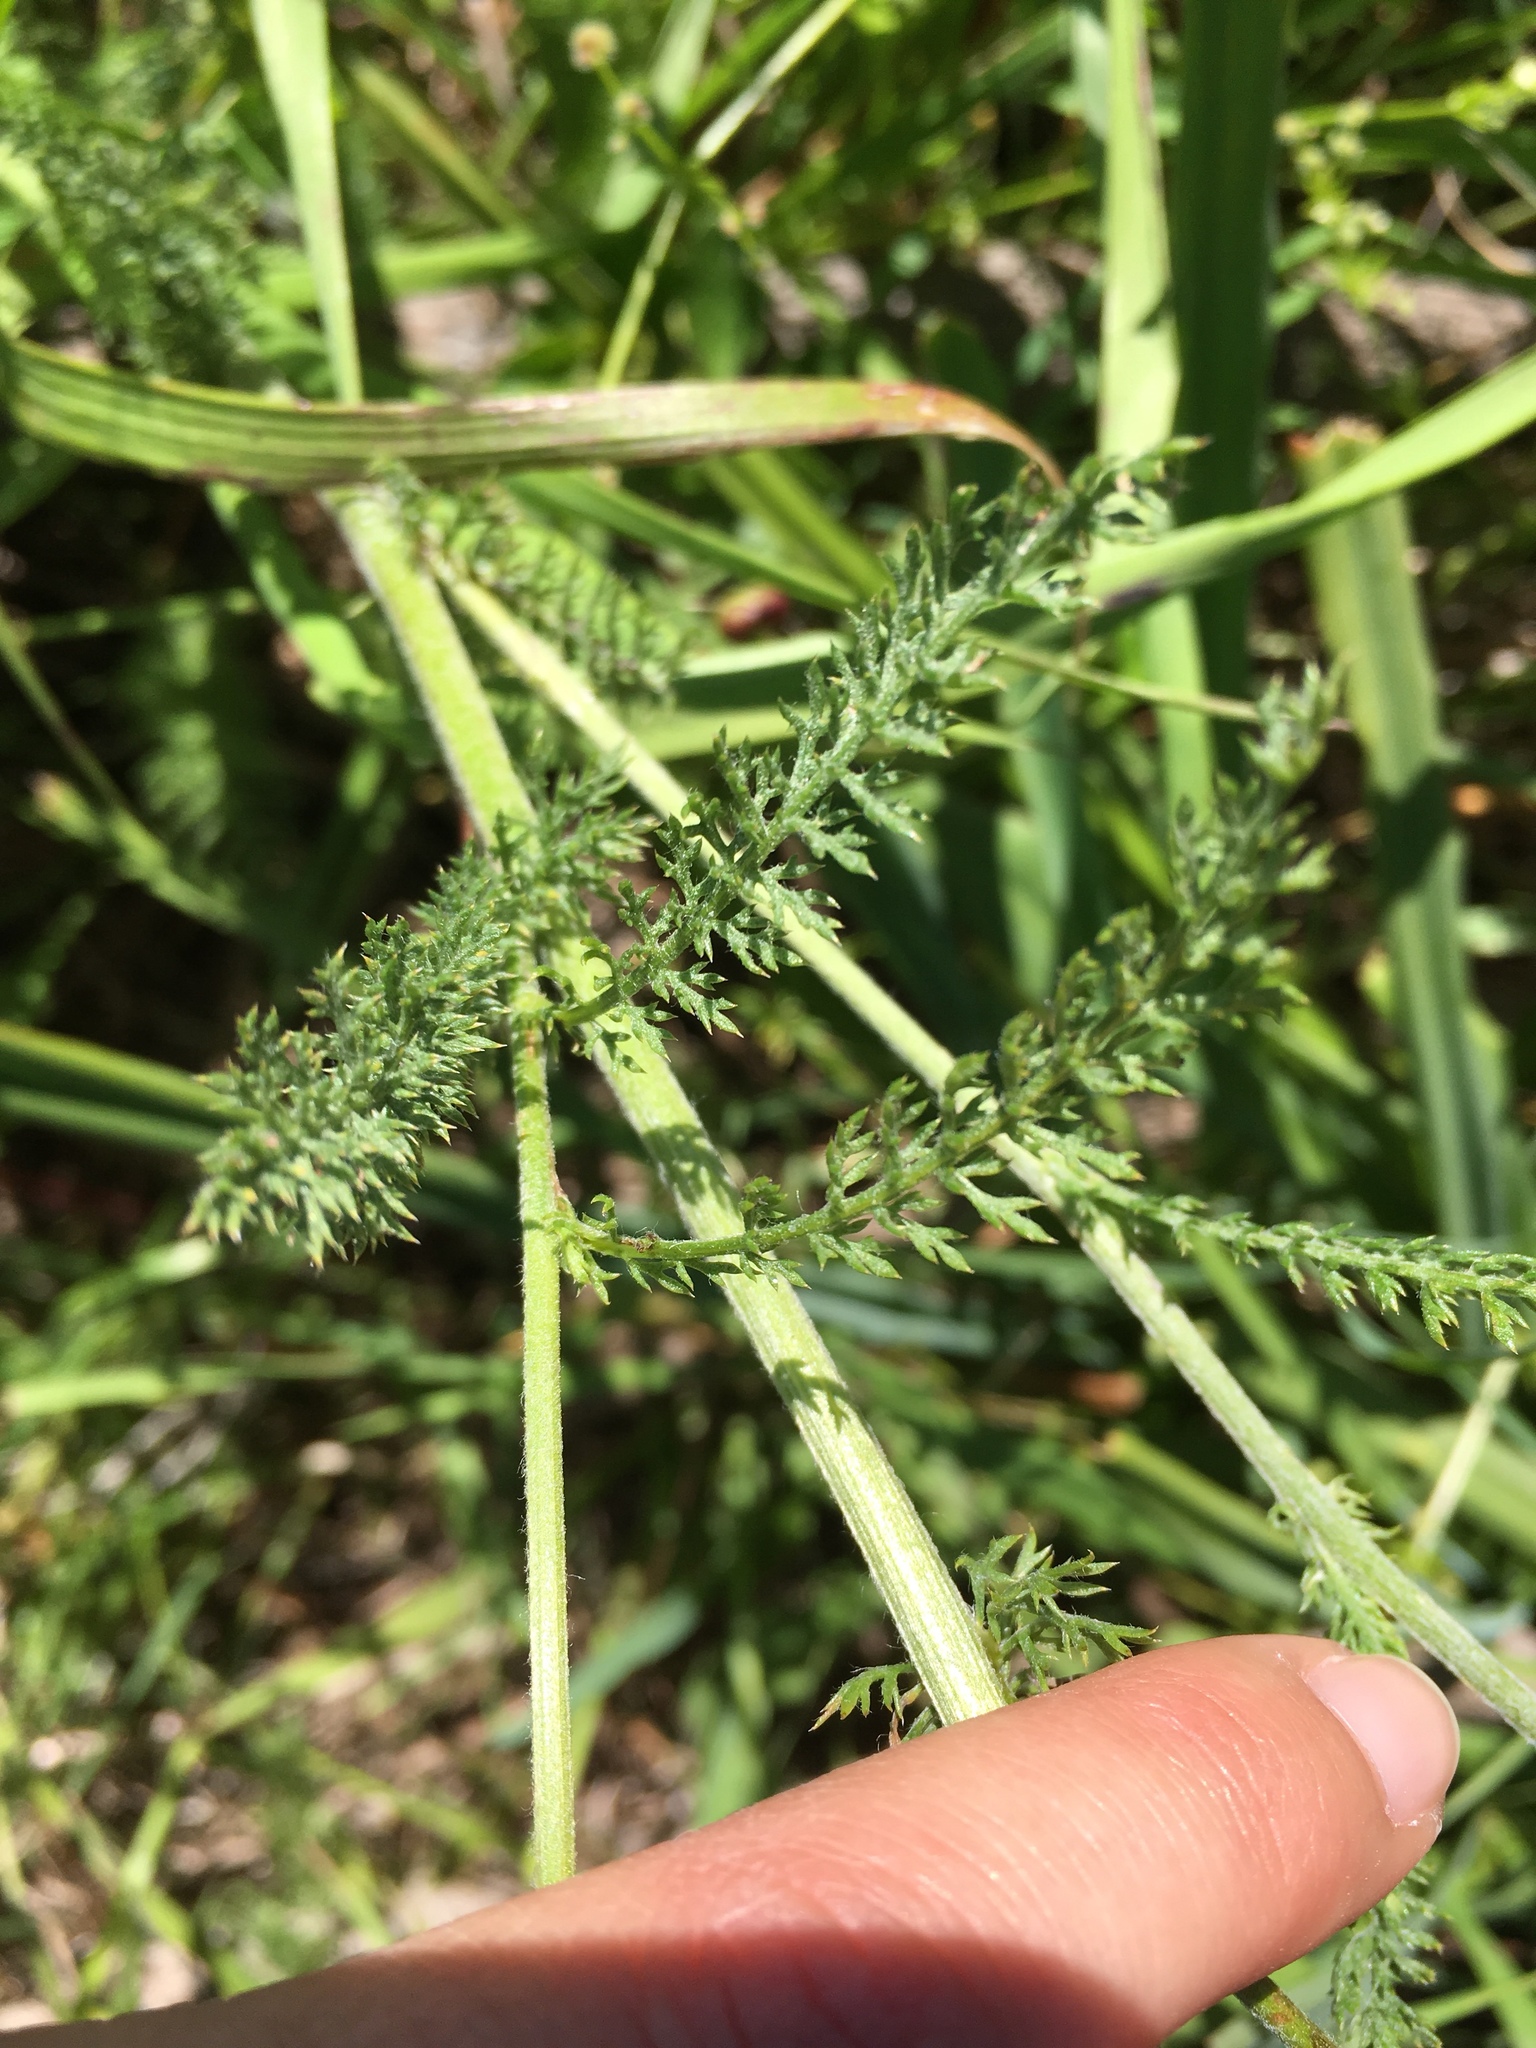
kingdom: Plantae
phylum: Tracheophyta
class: Magnoliopsida
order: Asterales
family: Asteraceae
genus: Achillea
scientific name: Achillea millefolium
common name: Yarrow
